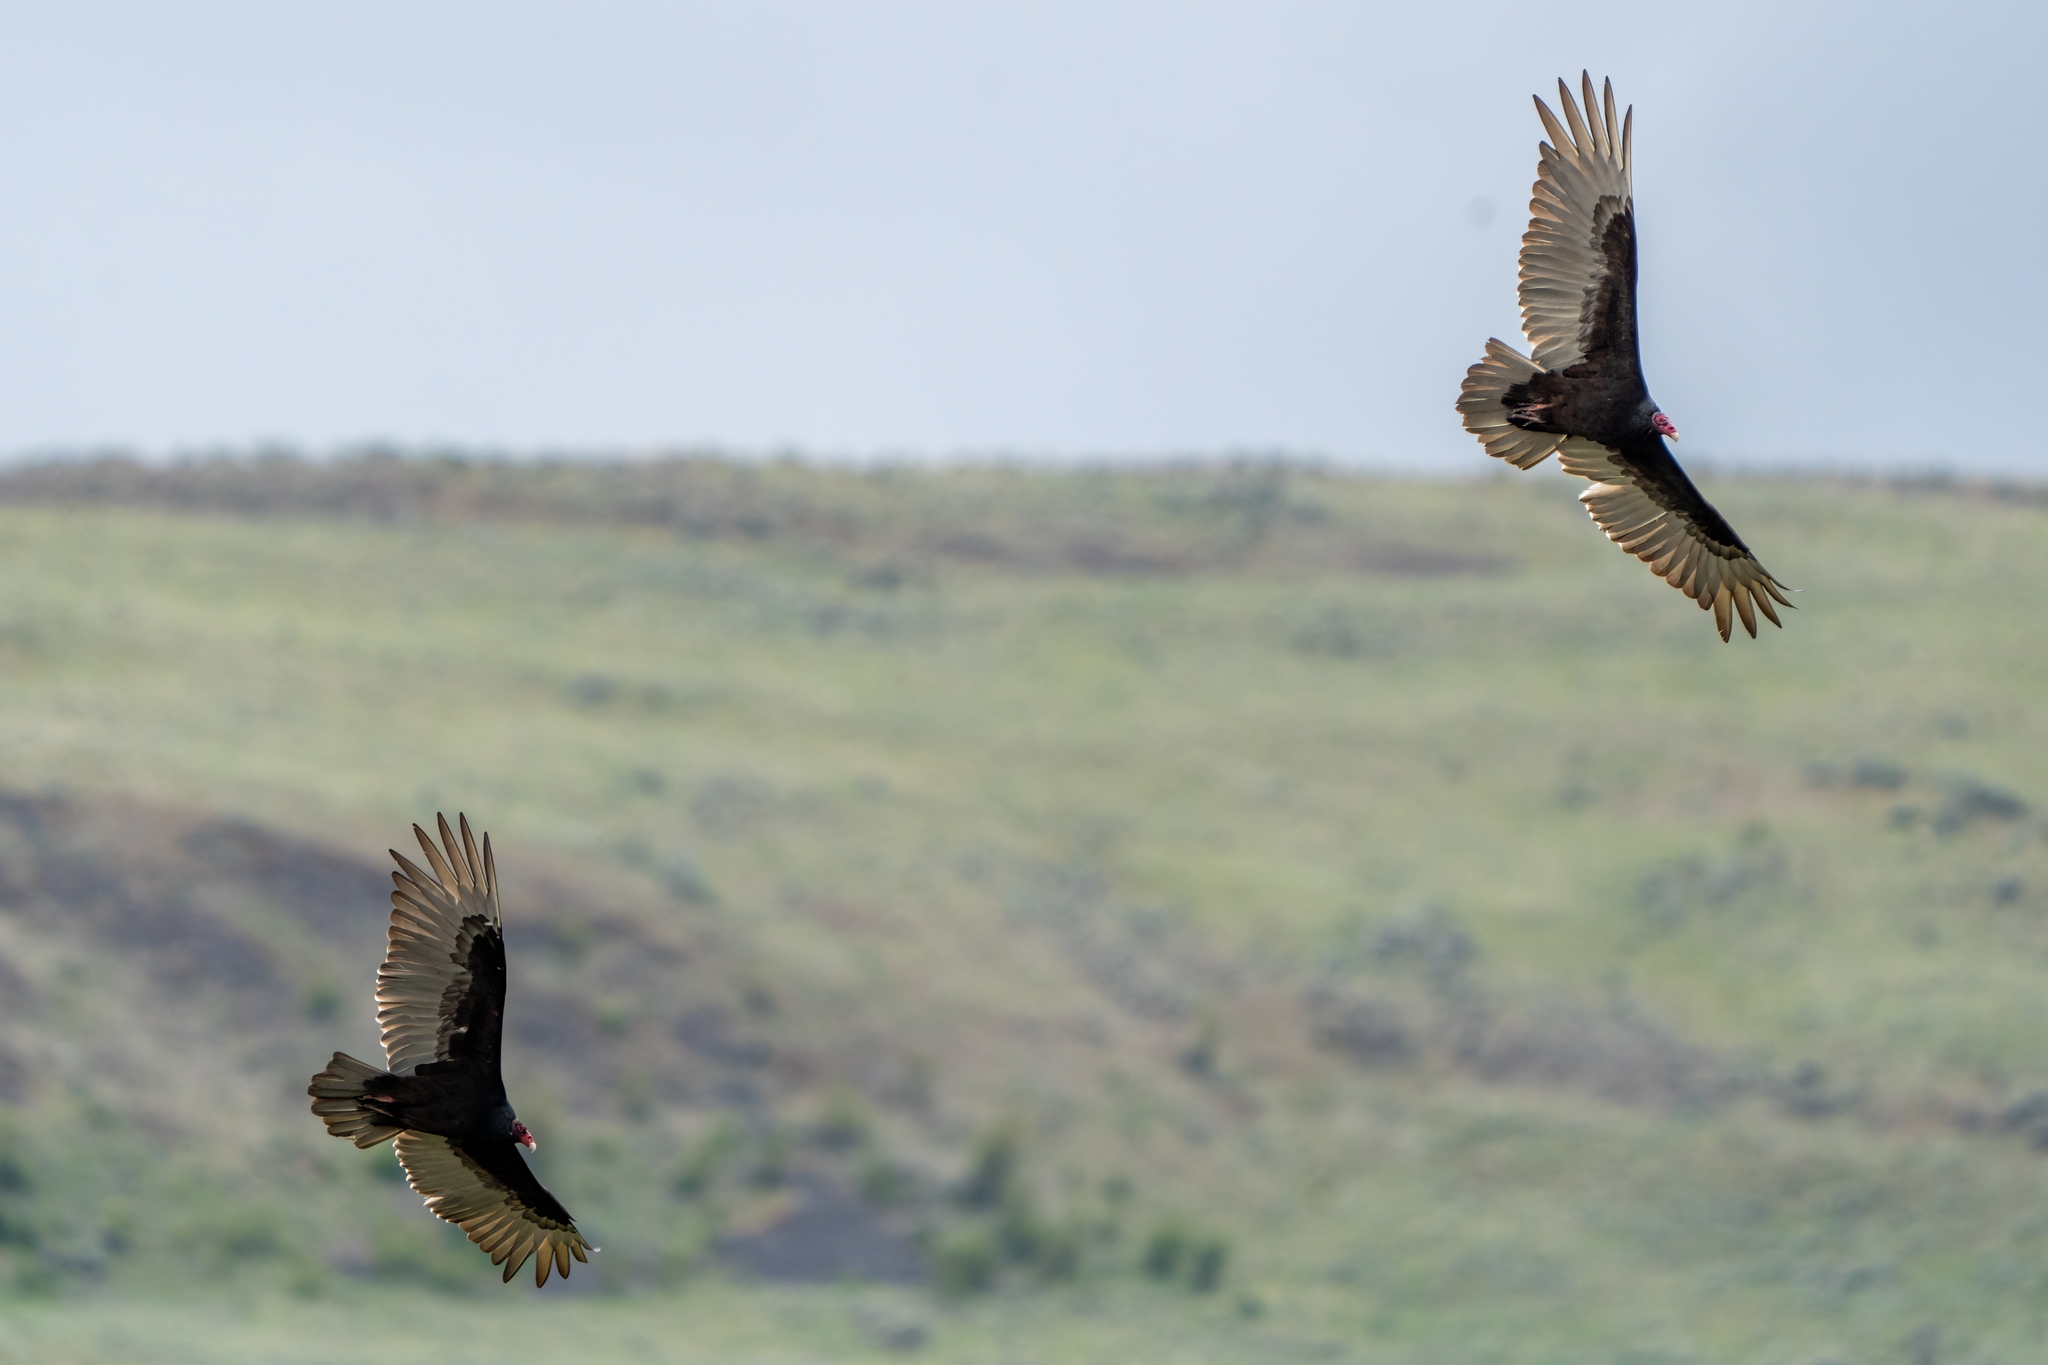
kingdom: Animalia
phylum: Chordata
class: Aves
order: Accipitriformes
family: Cathartidae
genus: Cathartes
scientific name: Cathartes aura
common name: Turkey vulture
